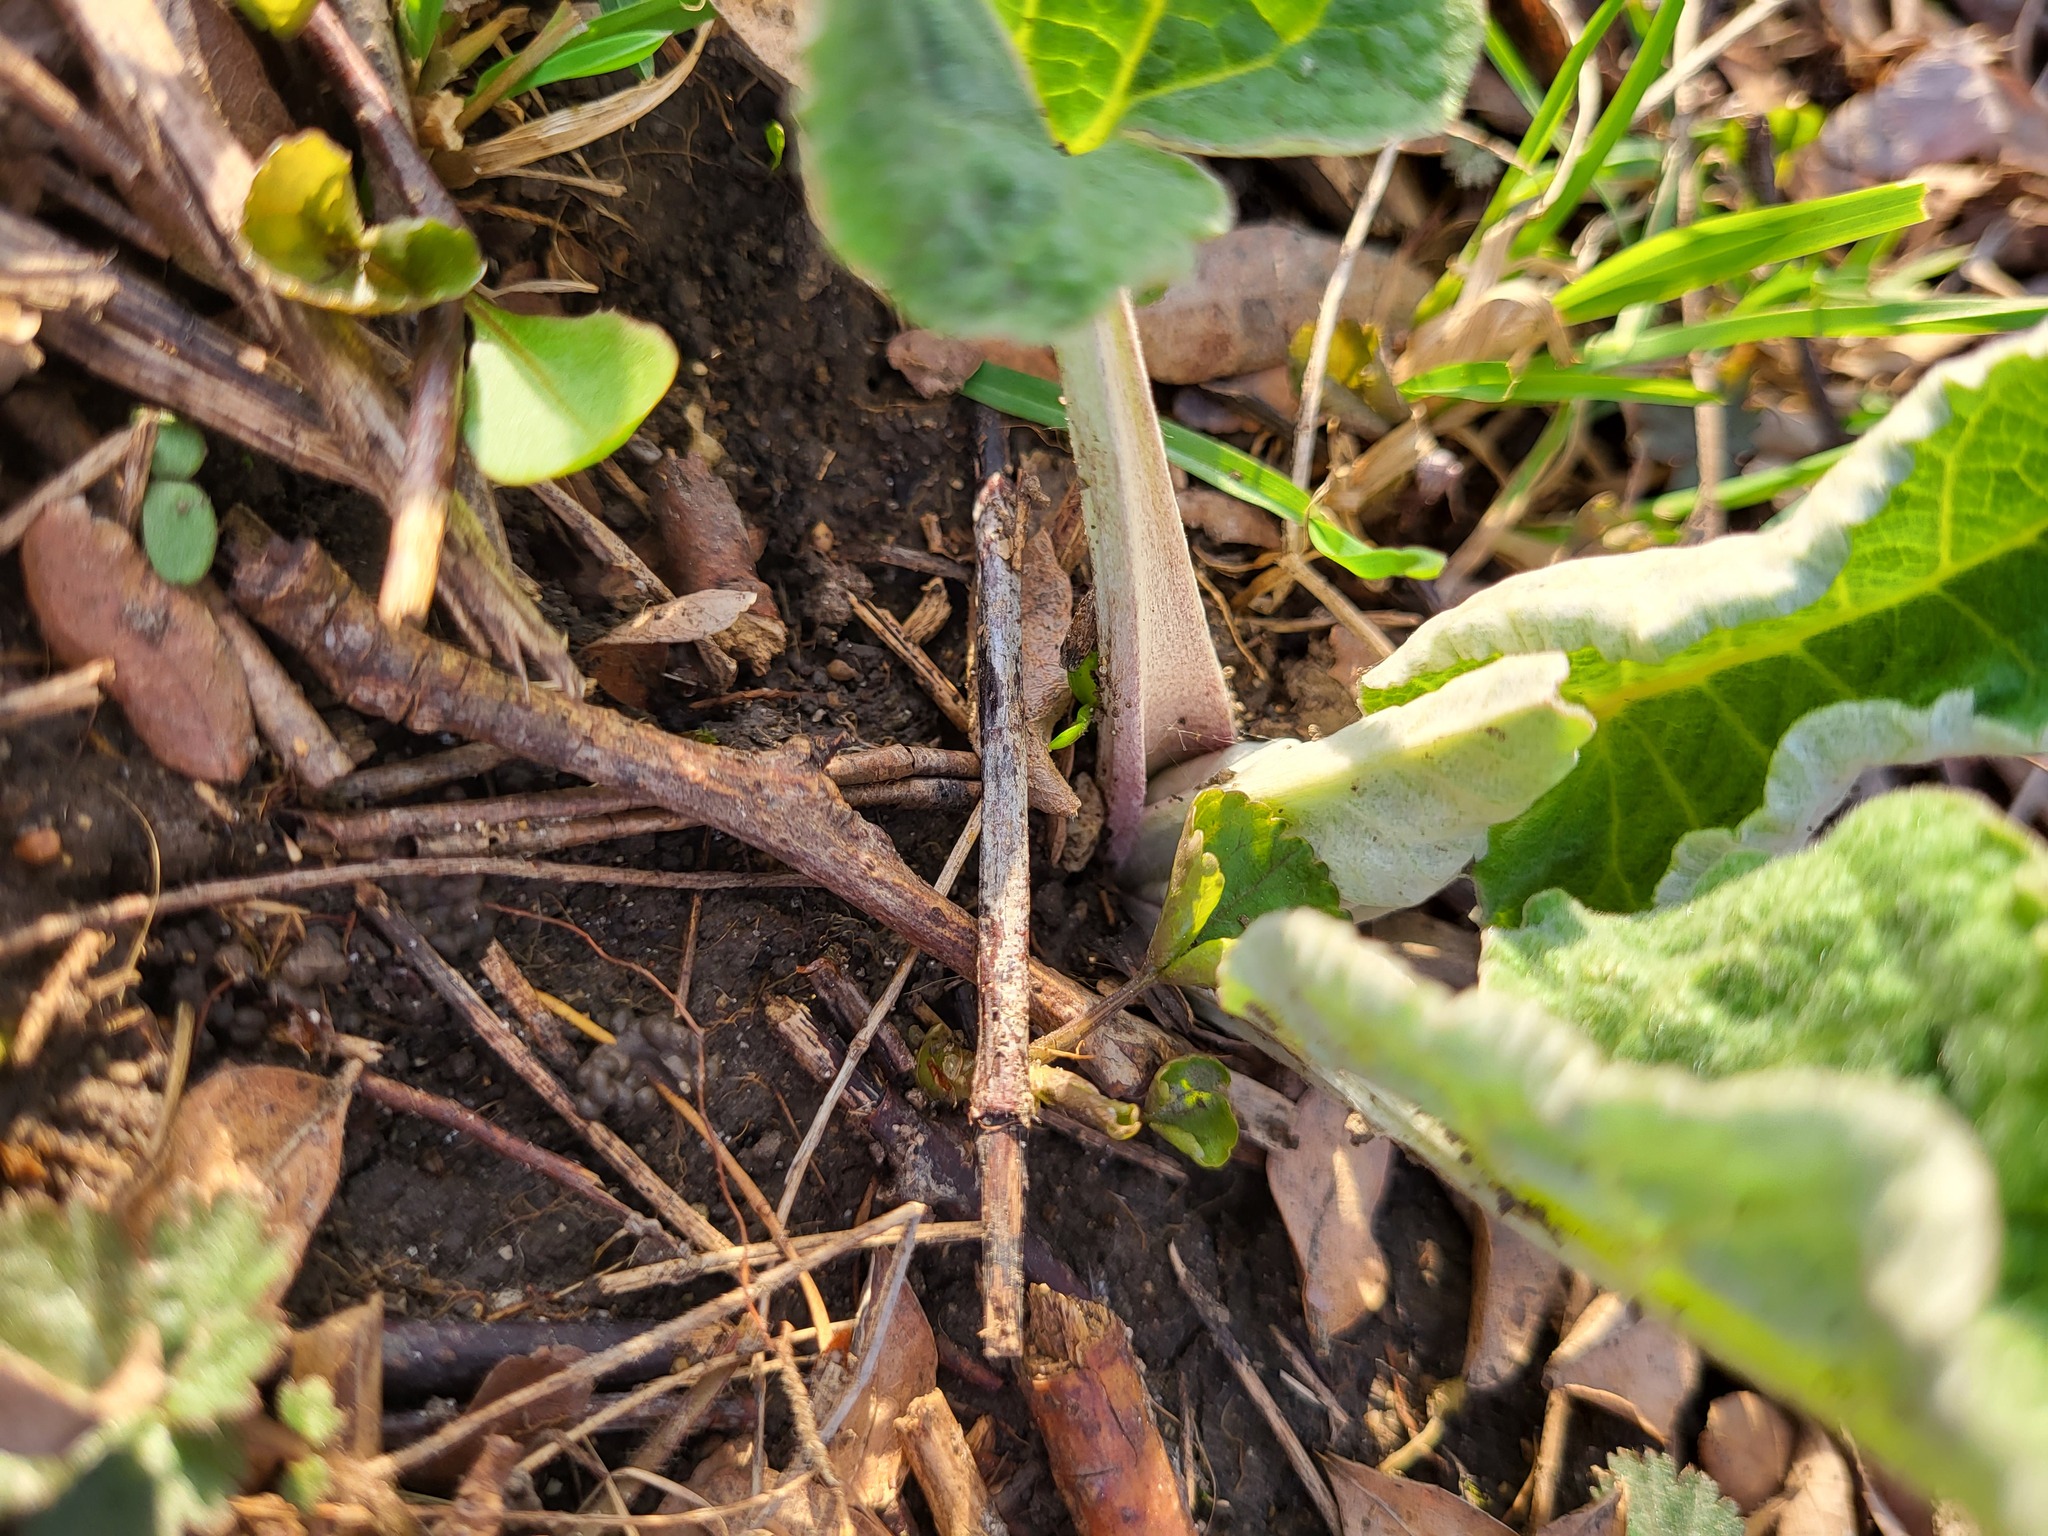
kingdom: Plantae
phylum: Tracheophyta
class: Magnoliopsida
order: Asterales
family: Asteraceae
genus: Arctium
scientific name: Arctium
